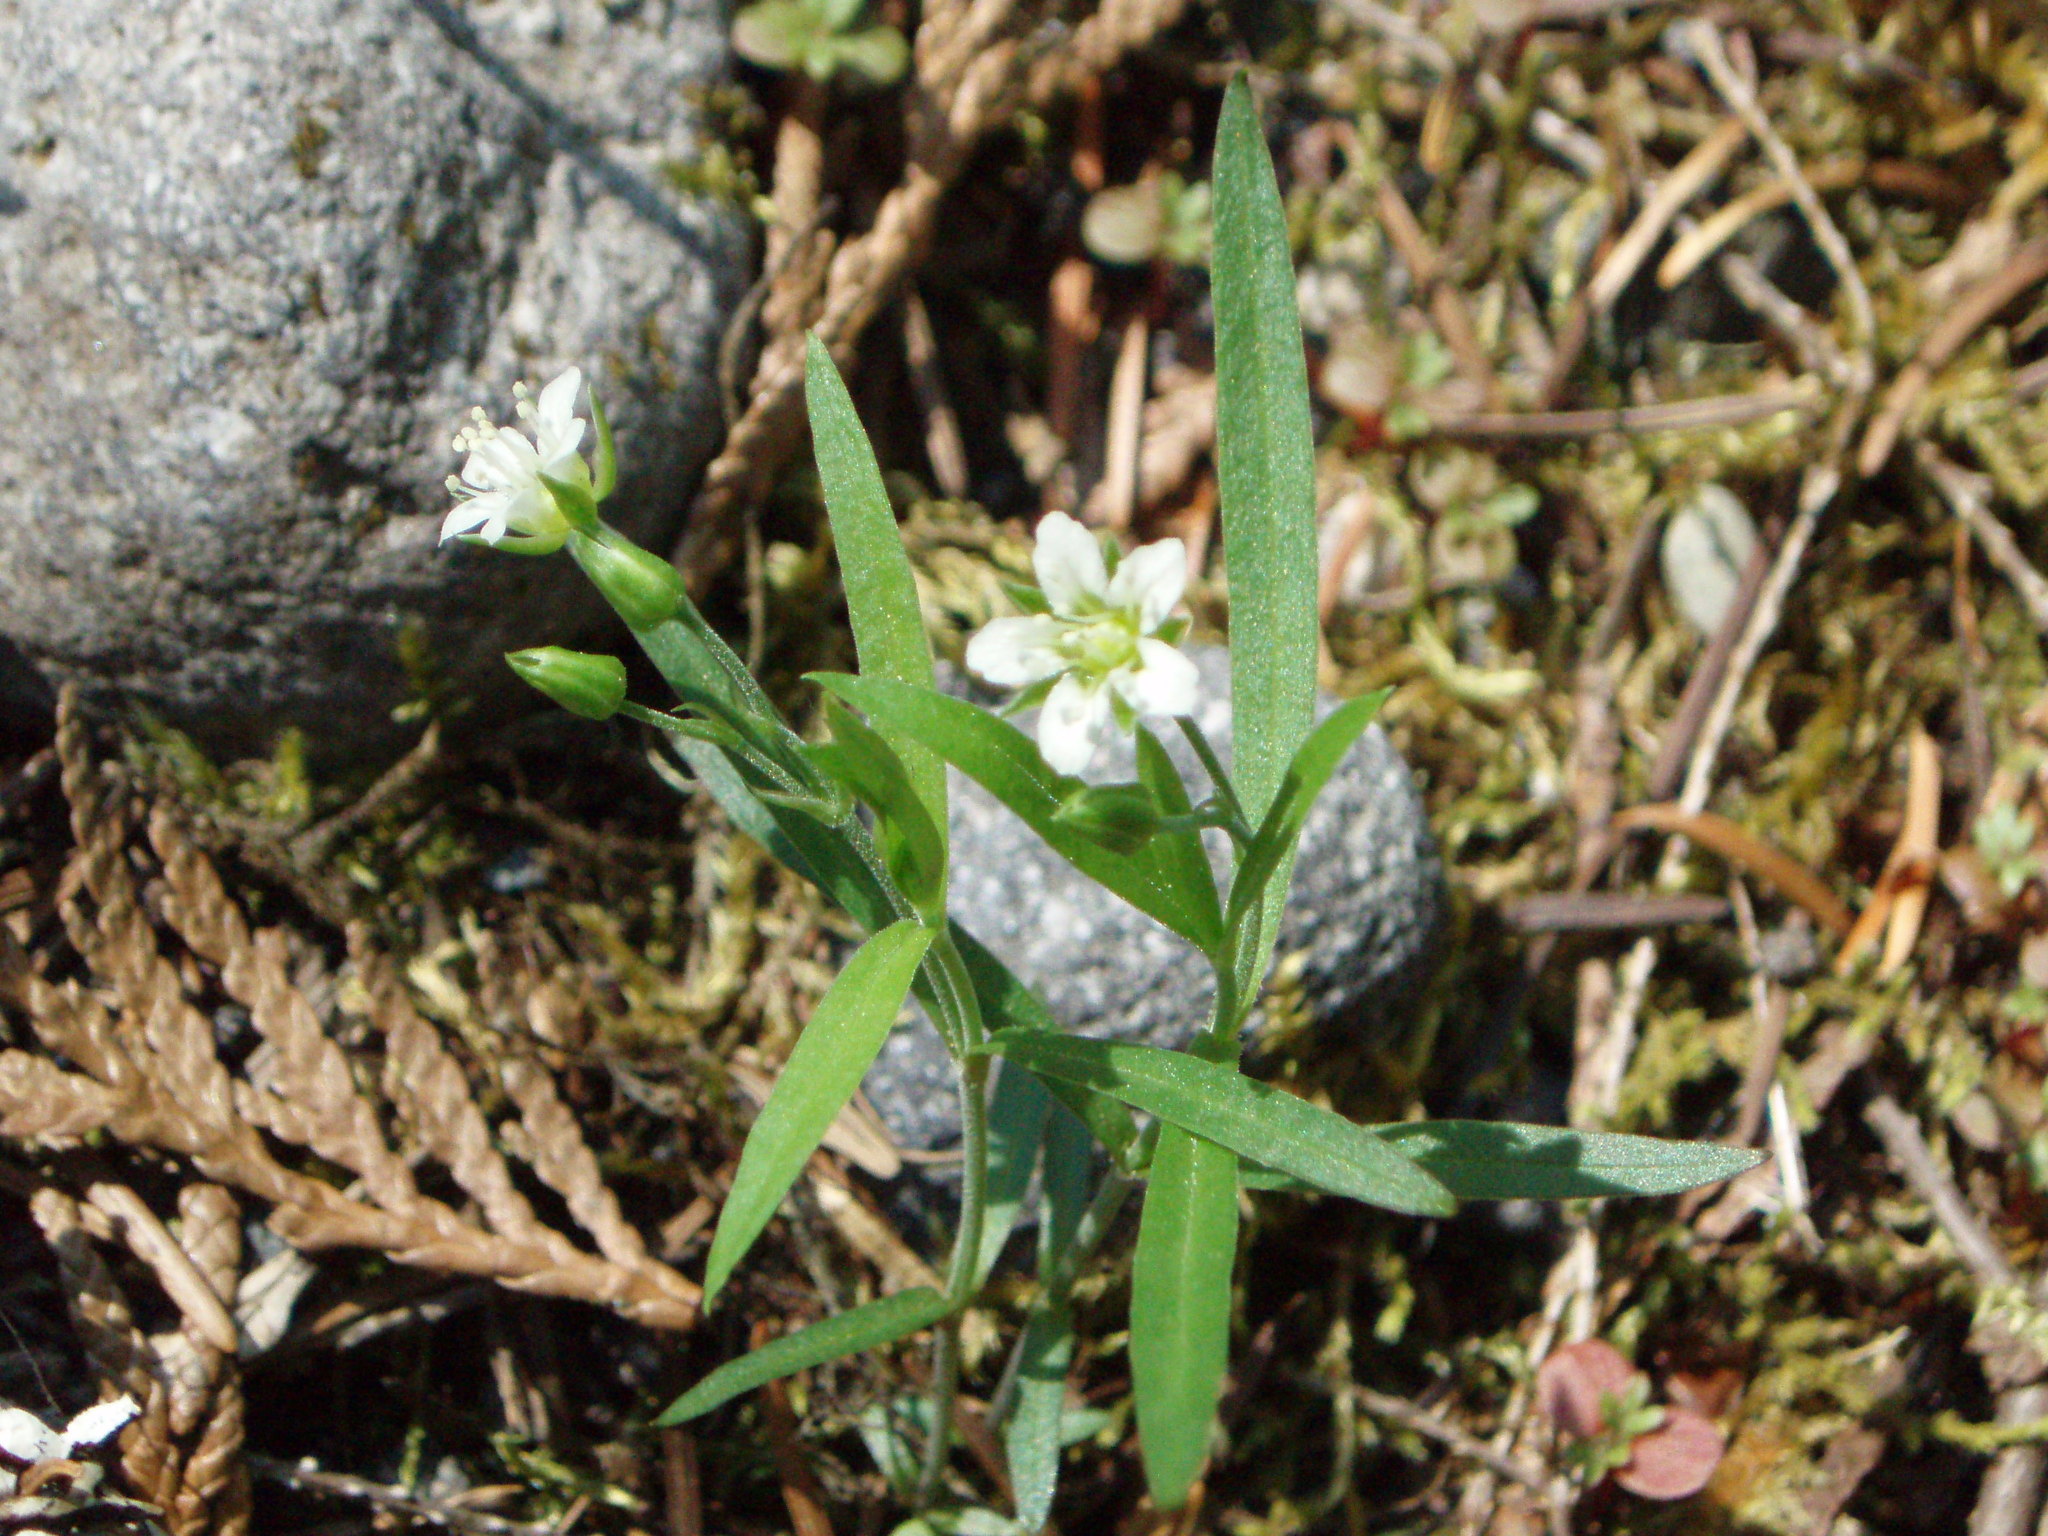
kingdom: Plantae
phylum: Tracheophyta
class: Magnoliopsida
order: Caryophyllales
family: Caryophyllaceae
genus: Moehringia
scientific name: Moehringia macrophylla
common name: Big-leaf sandwort
